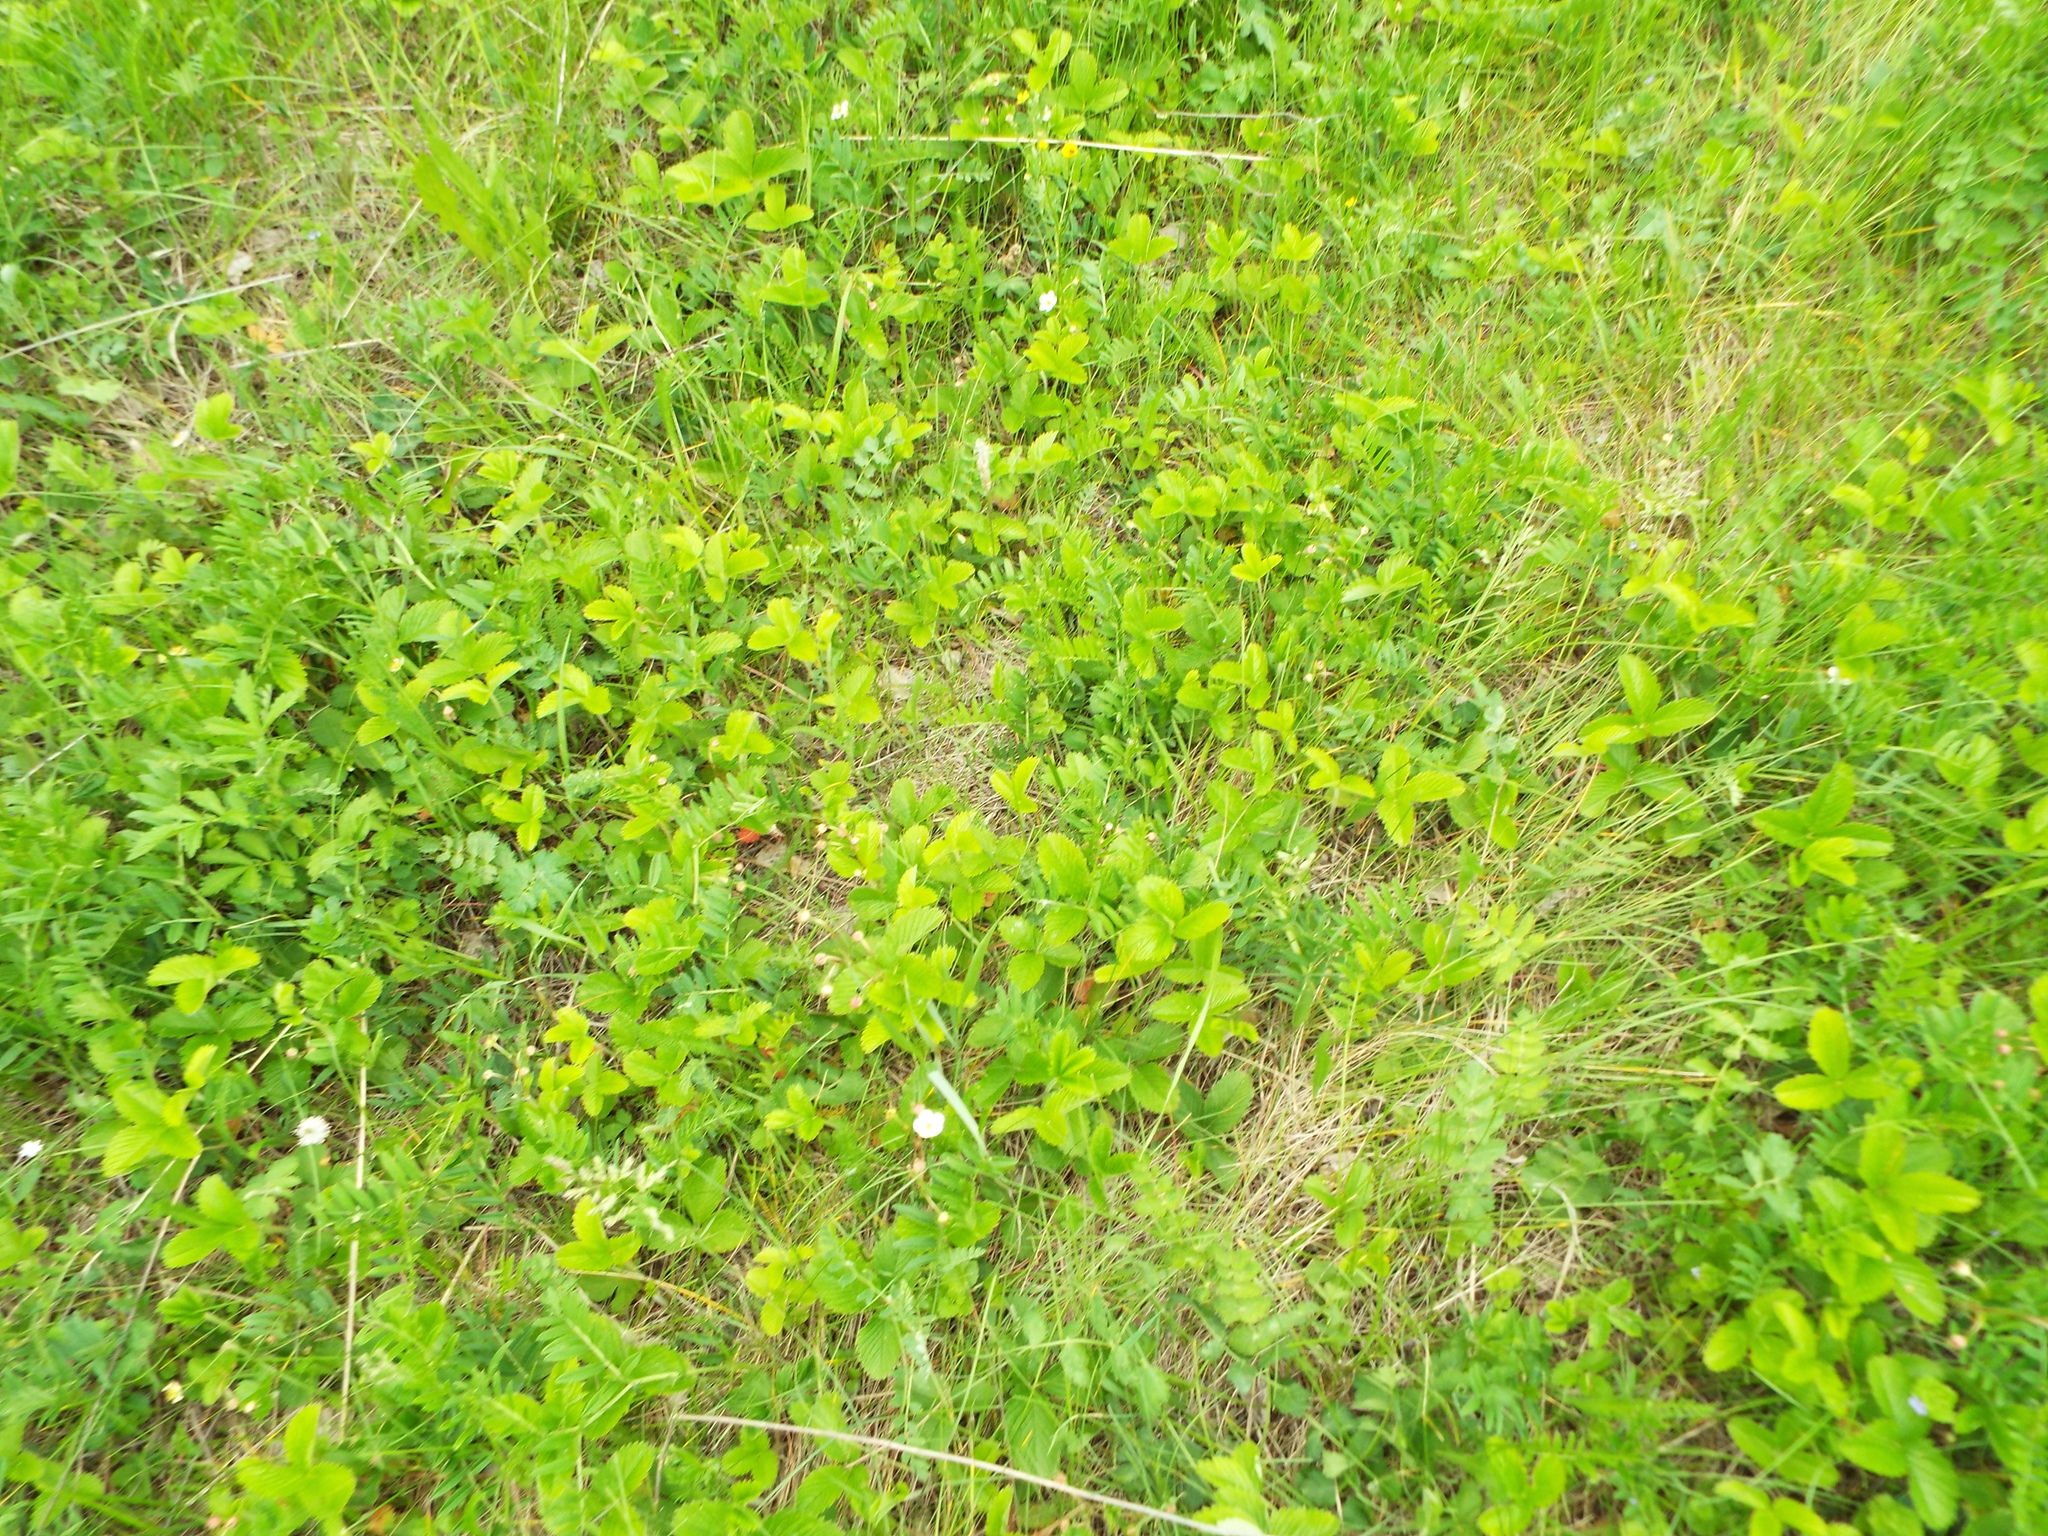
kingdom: Plantae
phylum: Tracheophyta
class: Magnoliopsida
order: Rosales
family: Rosaceae
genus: Fragaria
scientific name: Fragaria viridis
